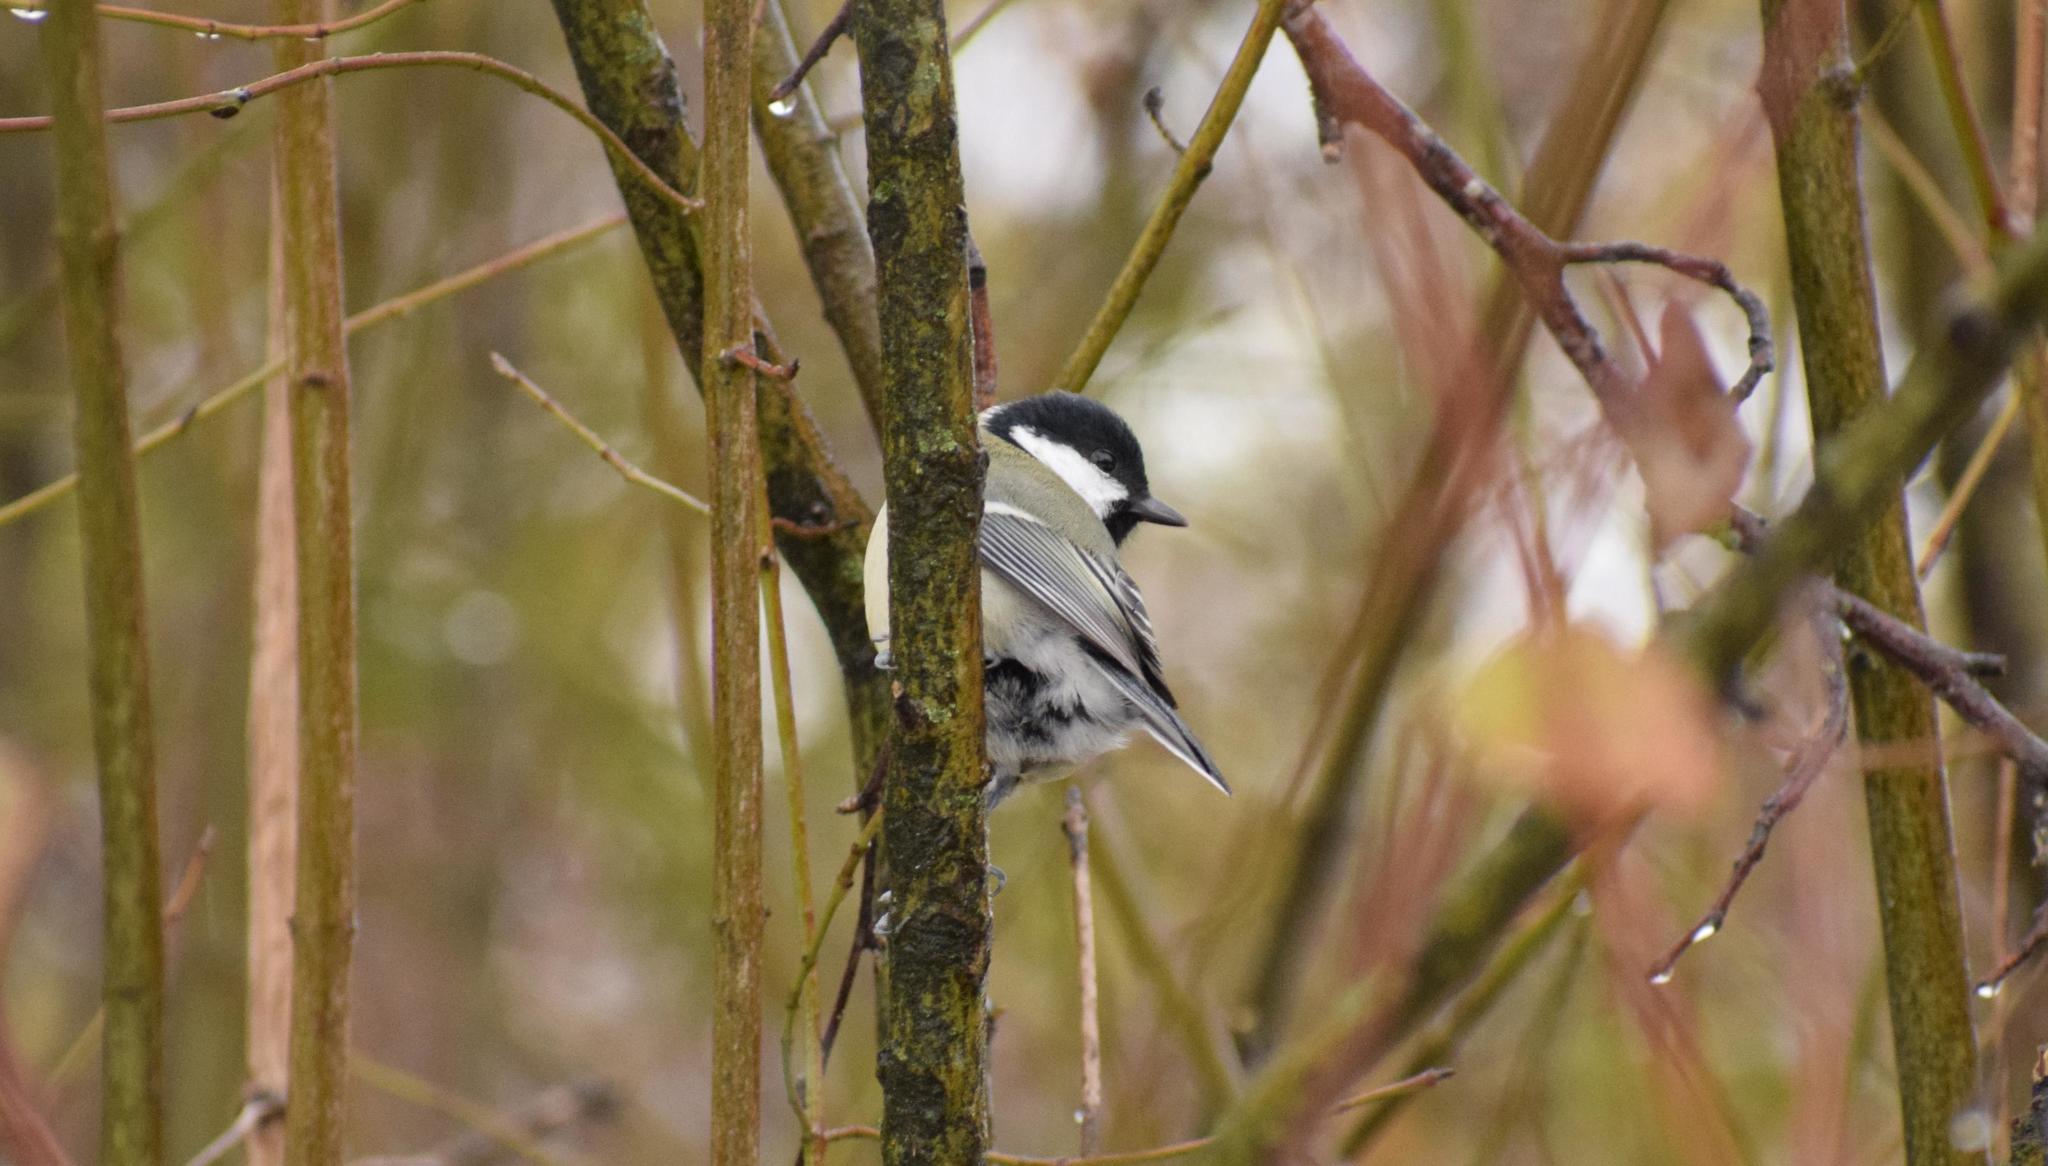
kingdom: Animalia
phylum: Chordata
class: Aves
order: Passeriformes
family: Paridae
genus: Parus
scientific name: Parus major
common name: Great tit
